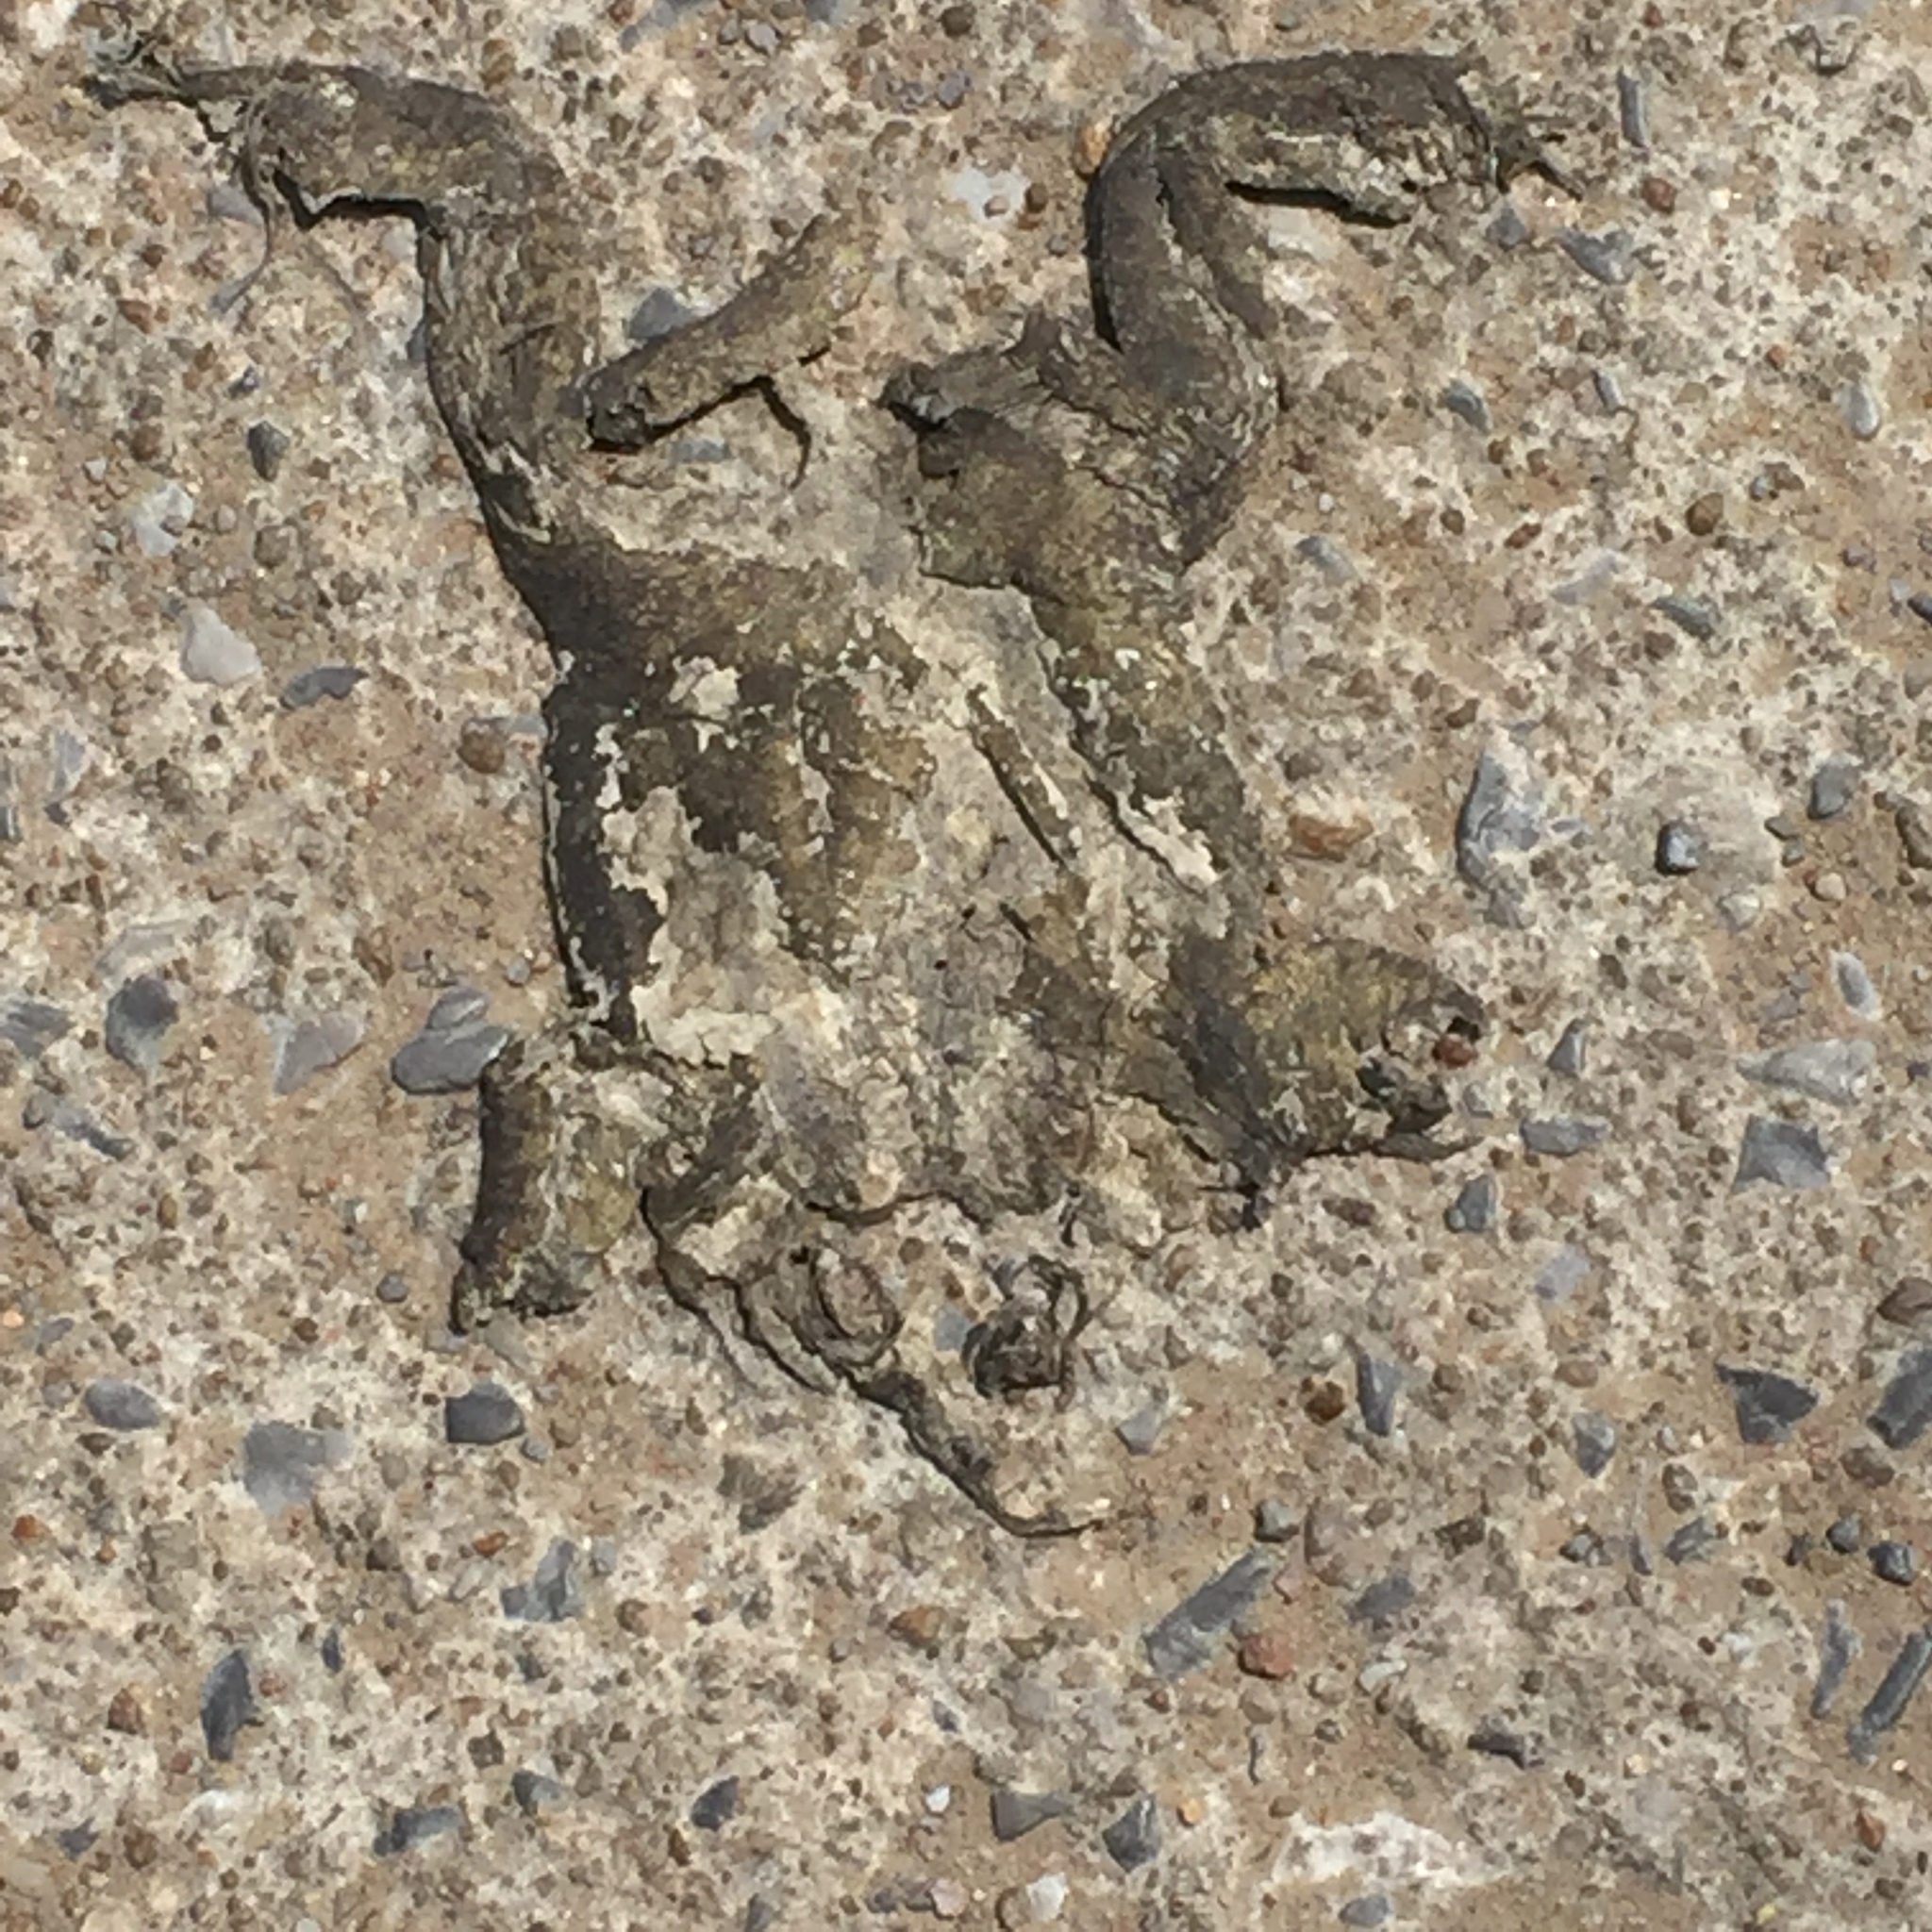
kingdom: Animalia
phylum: Chordata
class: Amphibia
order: Anura
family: Bufonidae
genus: Duttaphrynus
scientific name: Duttaphrynus melanostictus
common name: Common sunda toad
